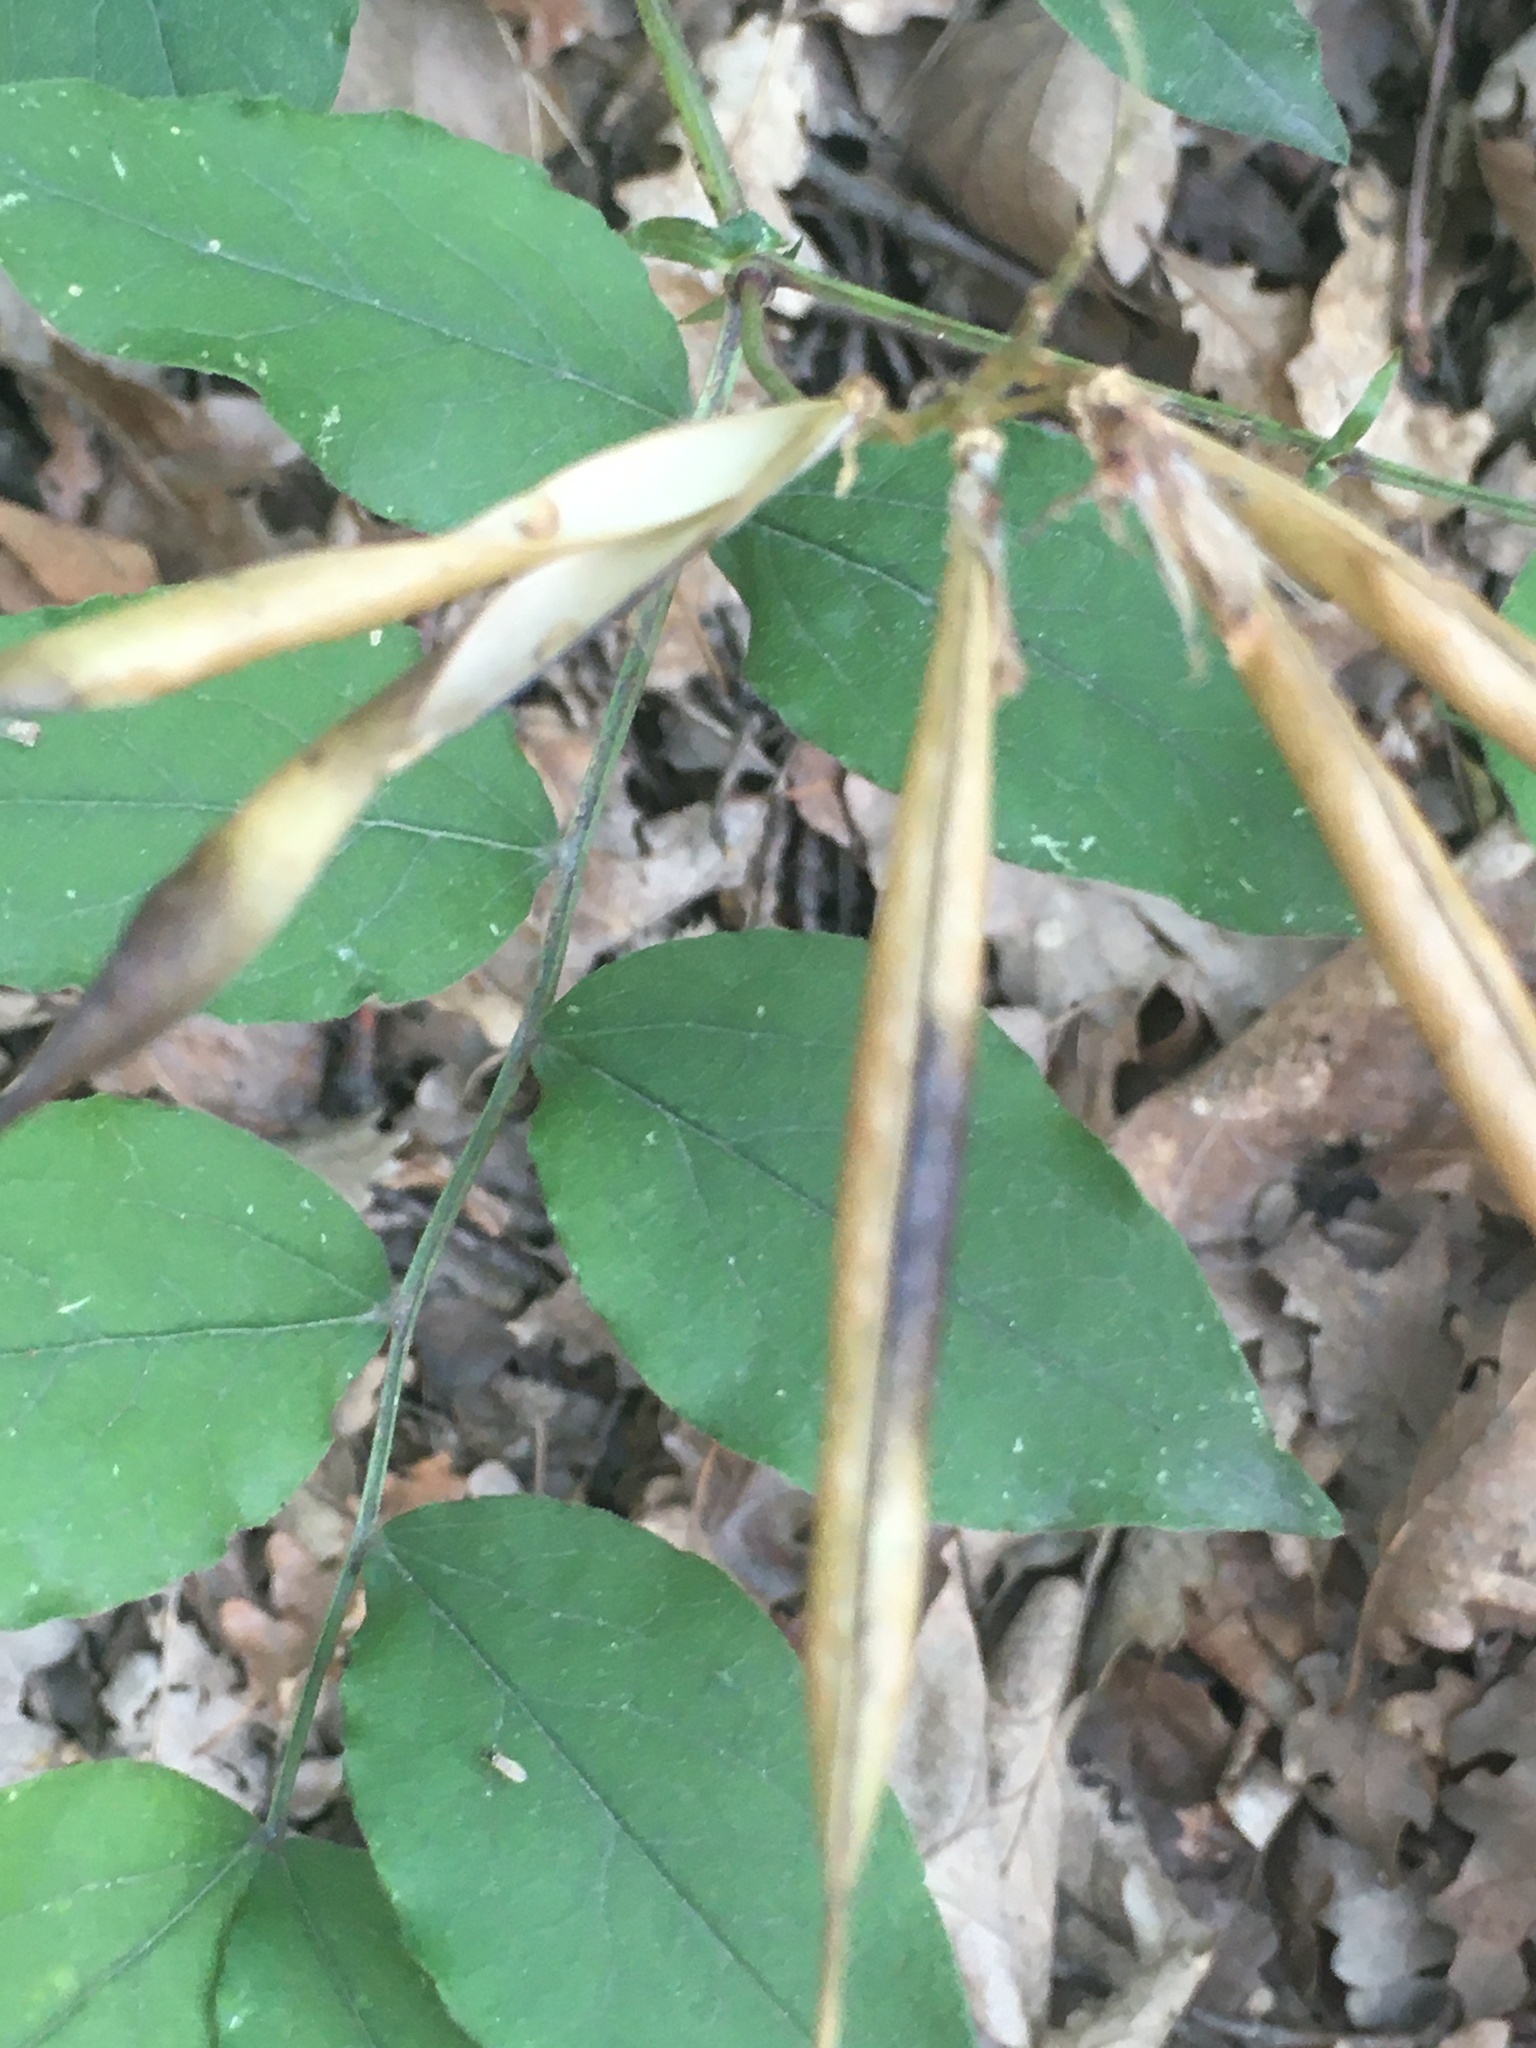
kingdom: Plantae
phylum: Tracheophyta
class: Magnoliopsida
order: Fabales
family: Fabaceae
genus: Lathyrus
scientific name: Lathyrus aureus
